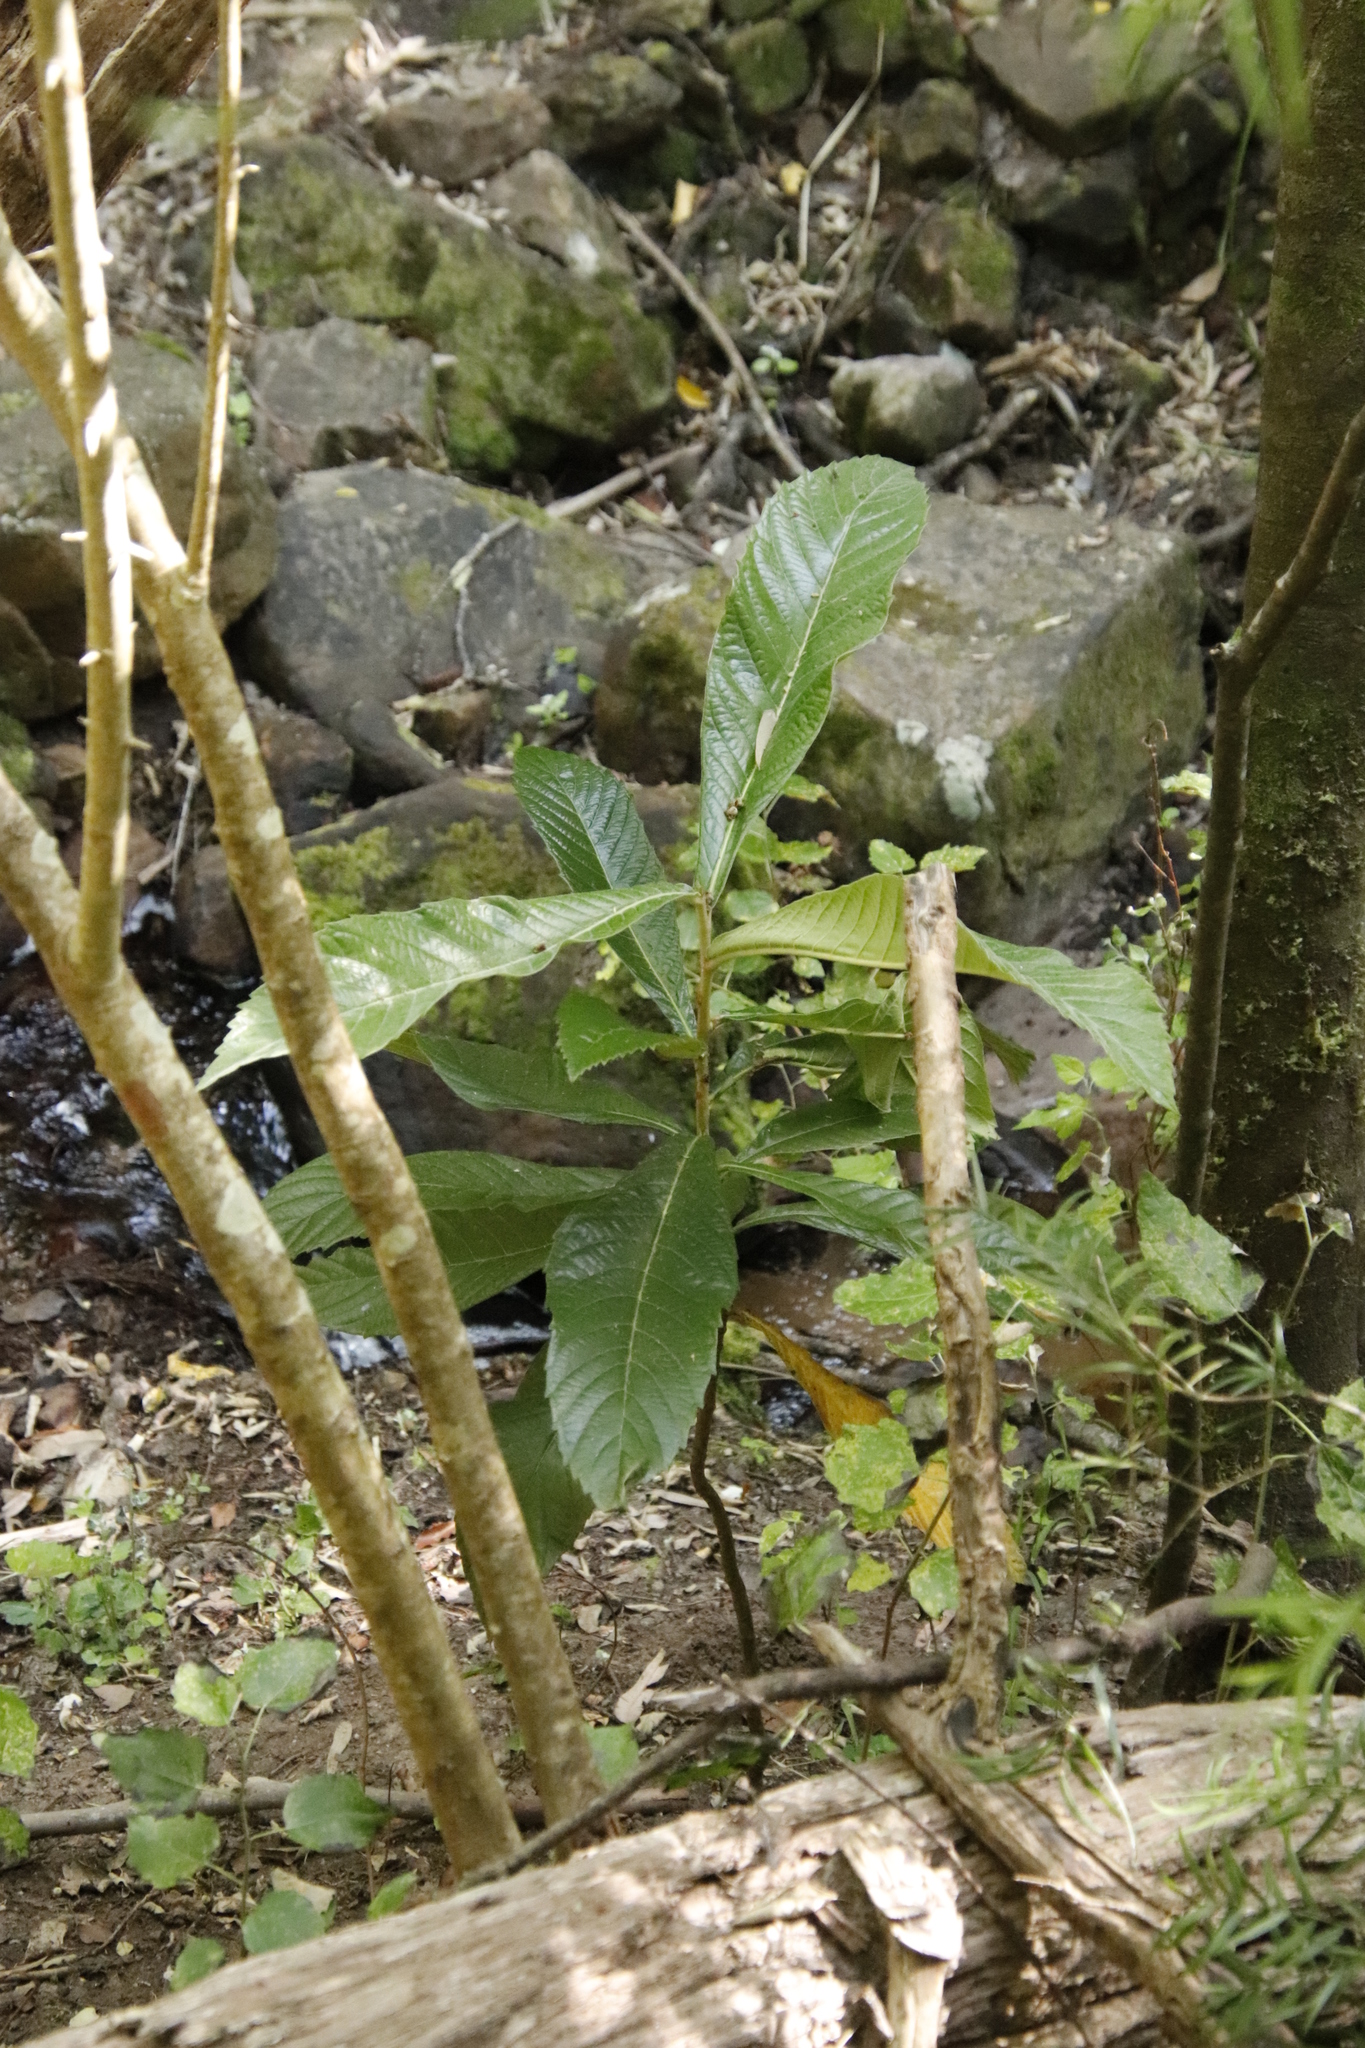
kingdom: Plantae
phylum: Tracheophyta
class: Magnoliopsida
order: Rosales
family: Rosaceae
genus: Rhaphiolepis
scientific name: Rhaphiolepis bibas
